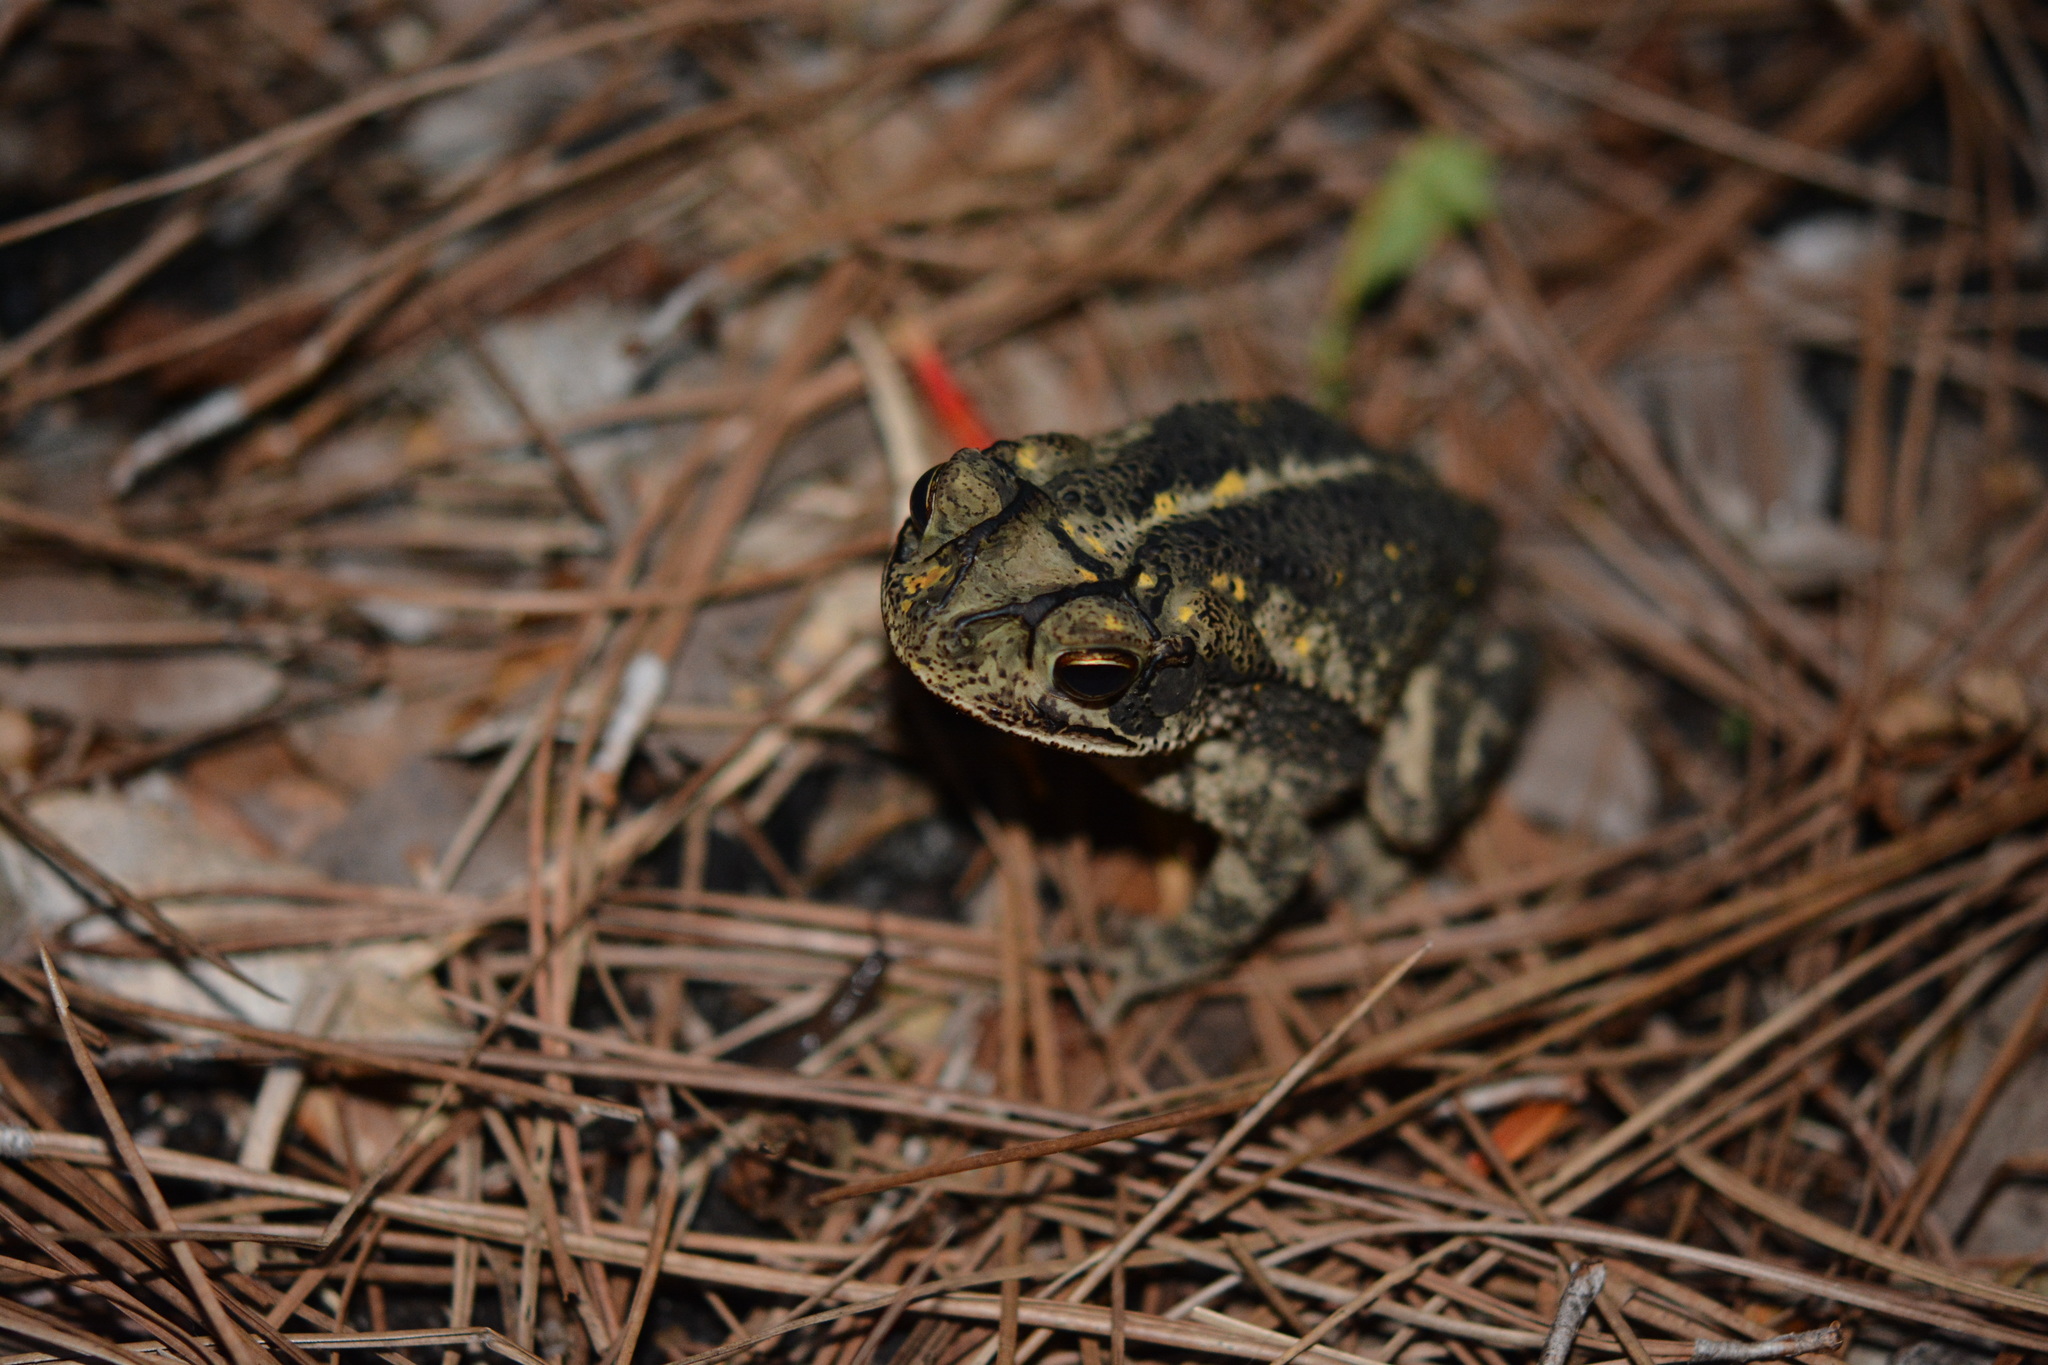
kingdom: Animalia
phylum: Chordata
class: Amphibia
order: Anura
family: Bufonidae
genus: Incilius
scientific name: Incilius nebulifer
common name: Gulf coast toad
